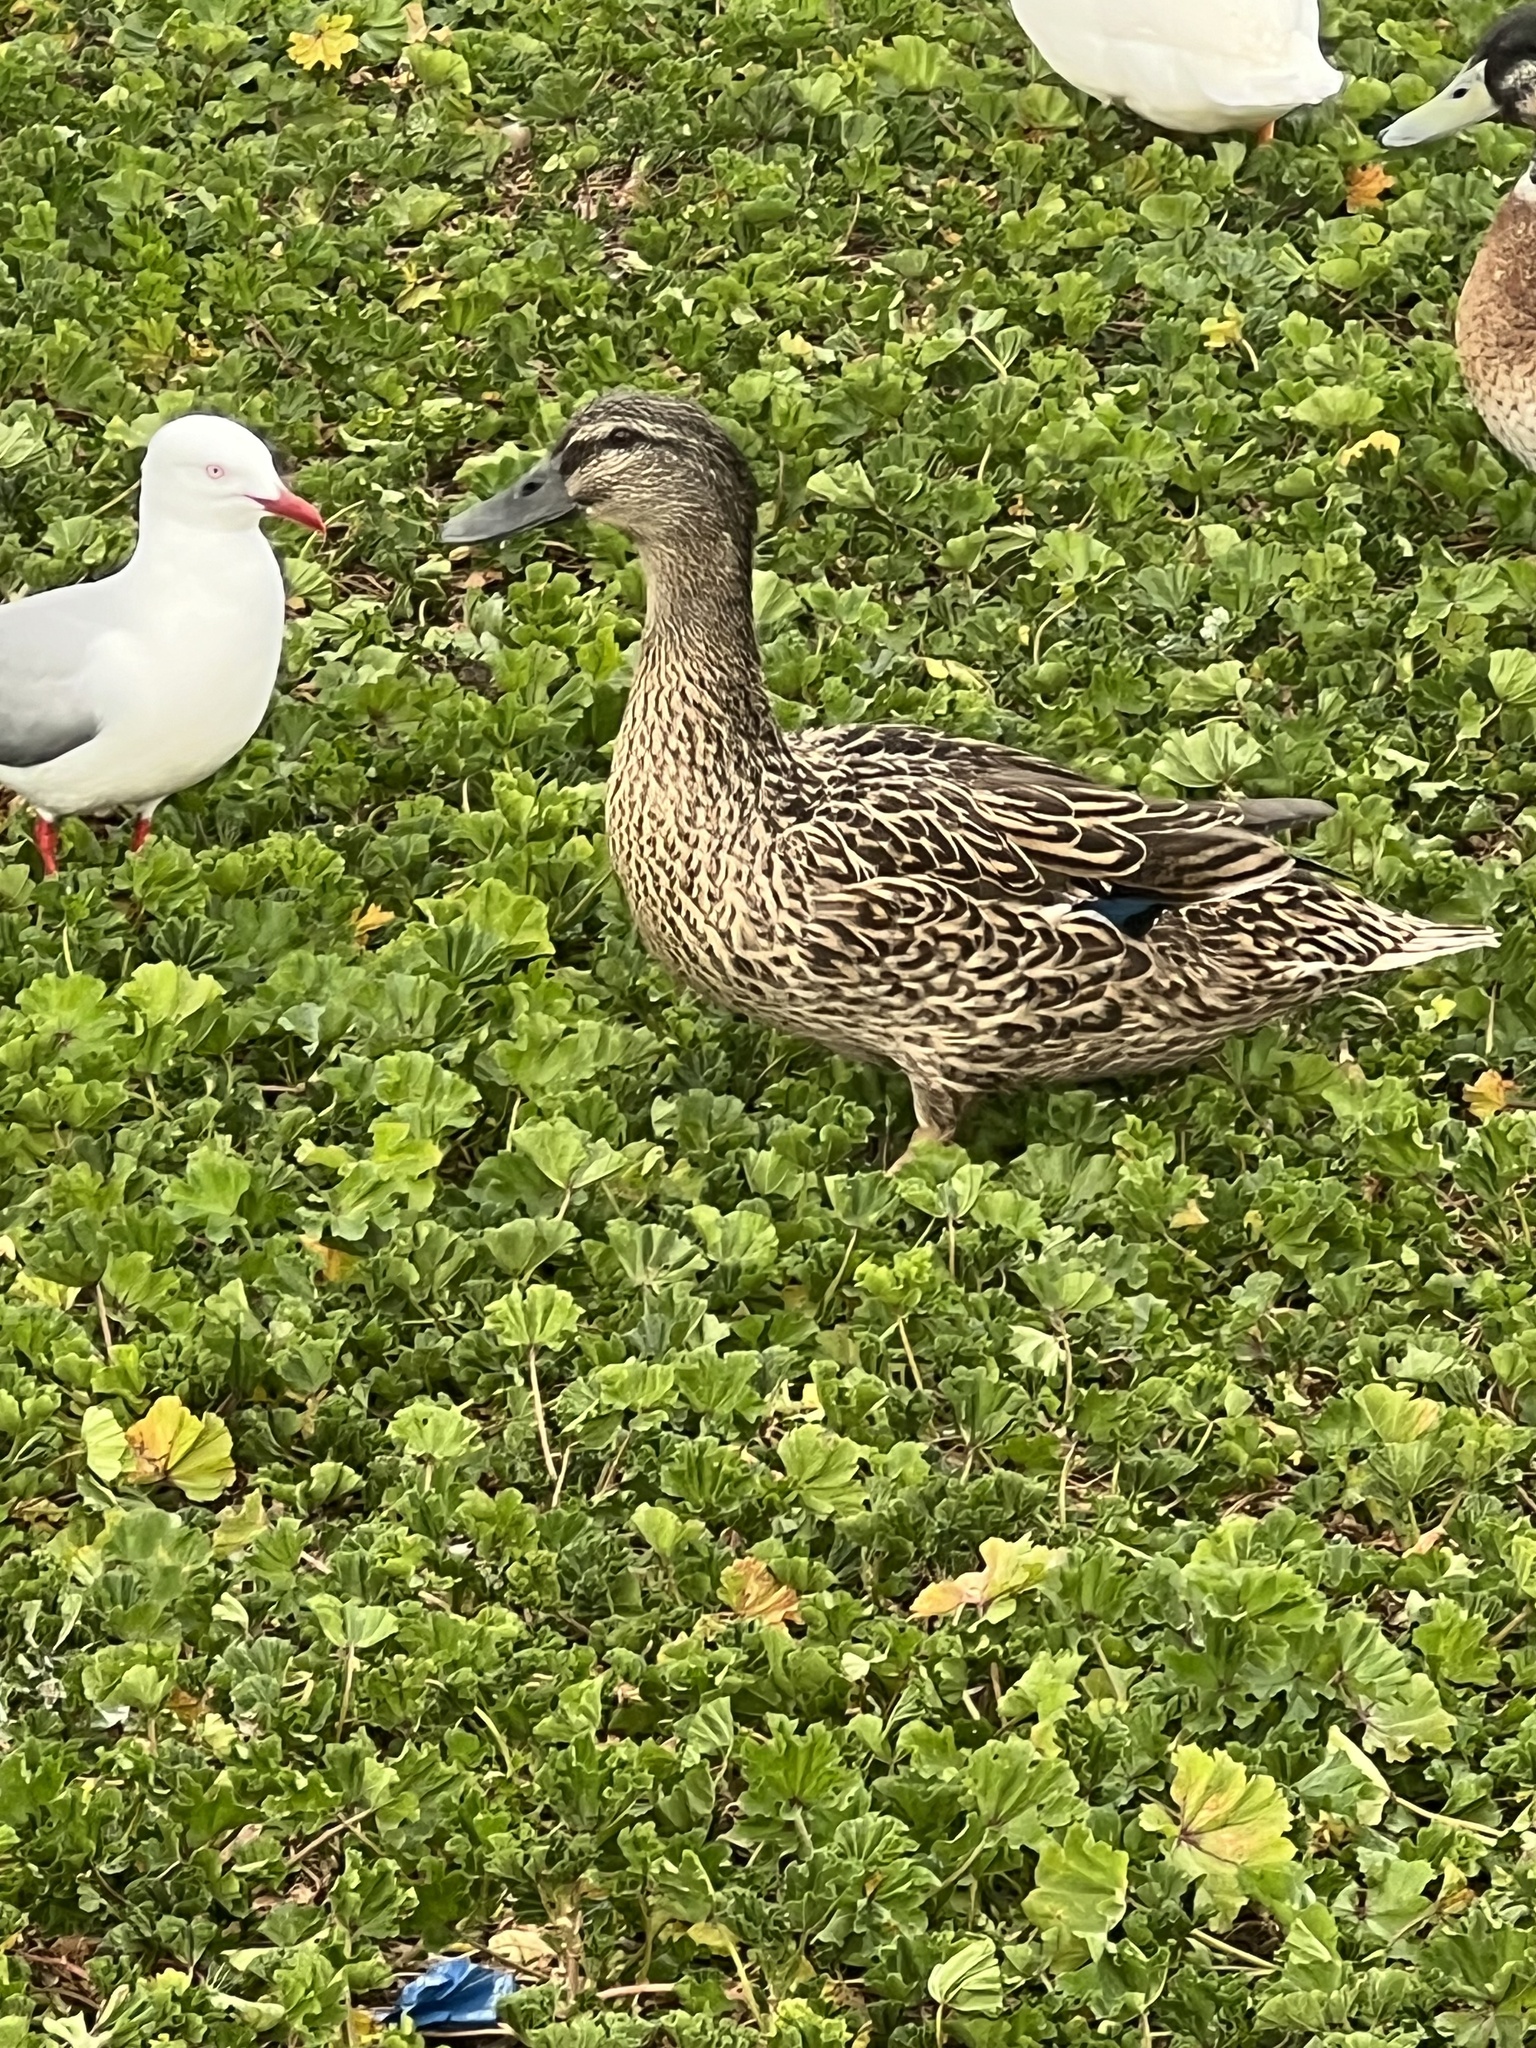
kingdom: Animalia
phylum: Chordata
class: Aves
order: Anseriformes
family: Anatidae
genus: Anas
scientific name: Anas
